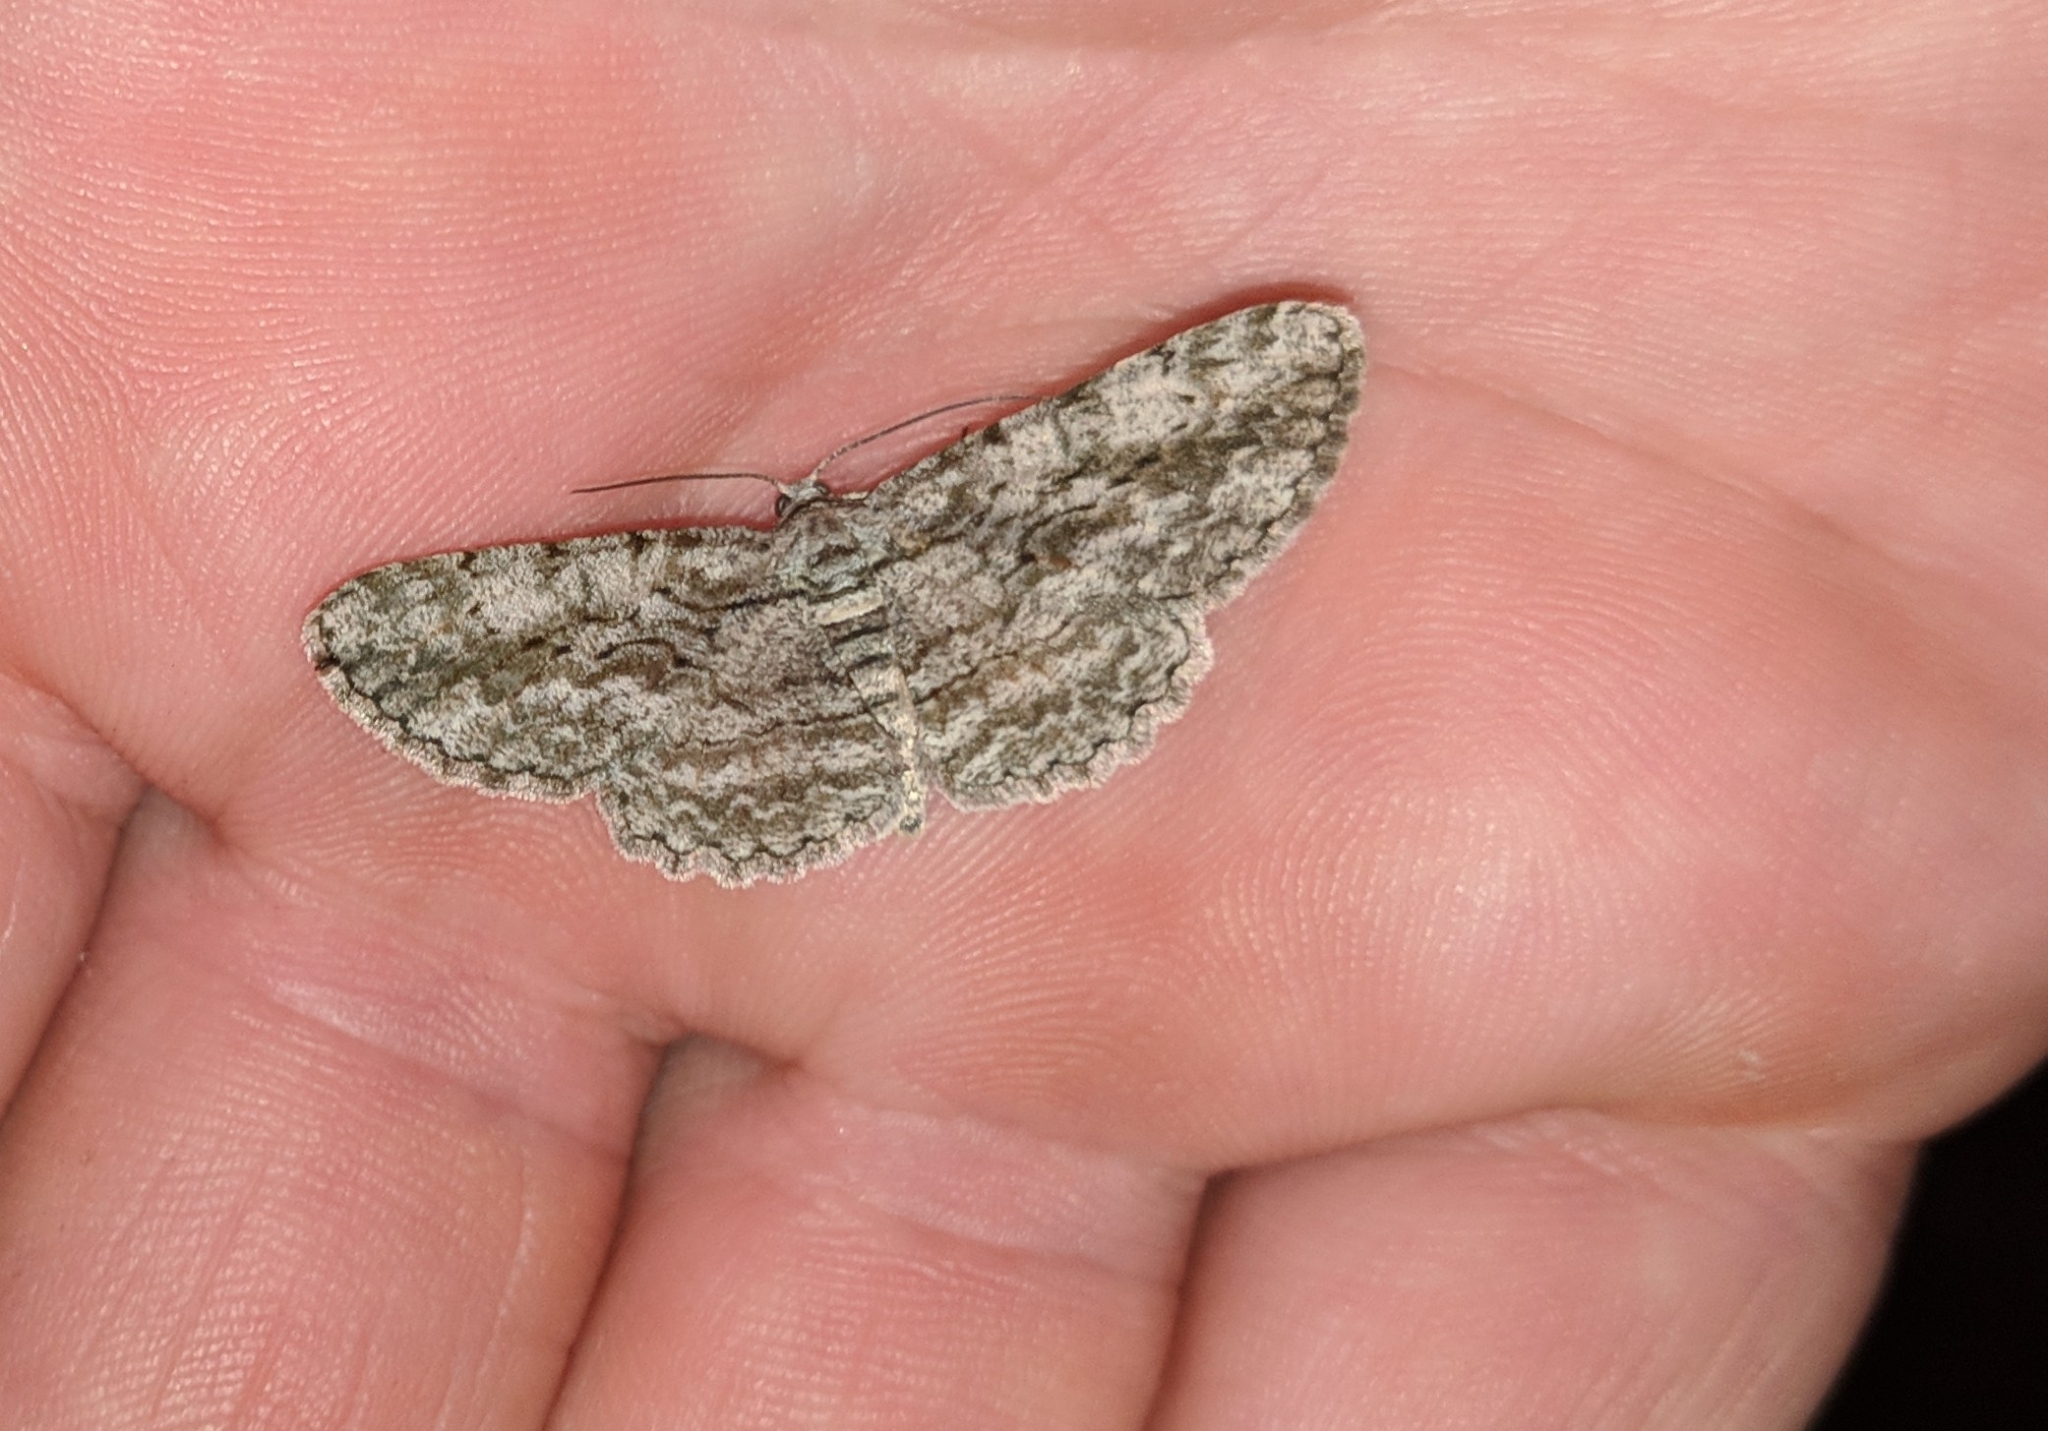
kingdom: Animalia
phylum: Arthropoda
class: Insecta
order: Lepidoptera
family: Geometridae
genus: Anavitrinella
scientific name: Anavitrinella pampinaria
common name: Common gray
